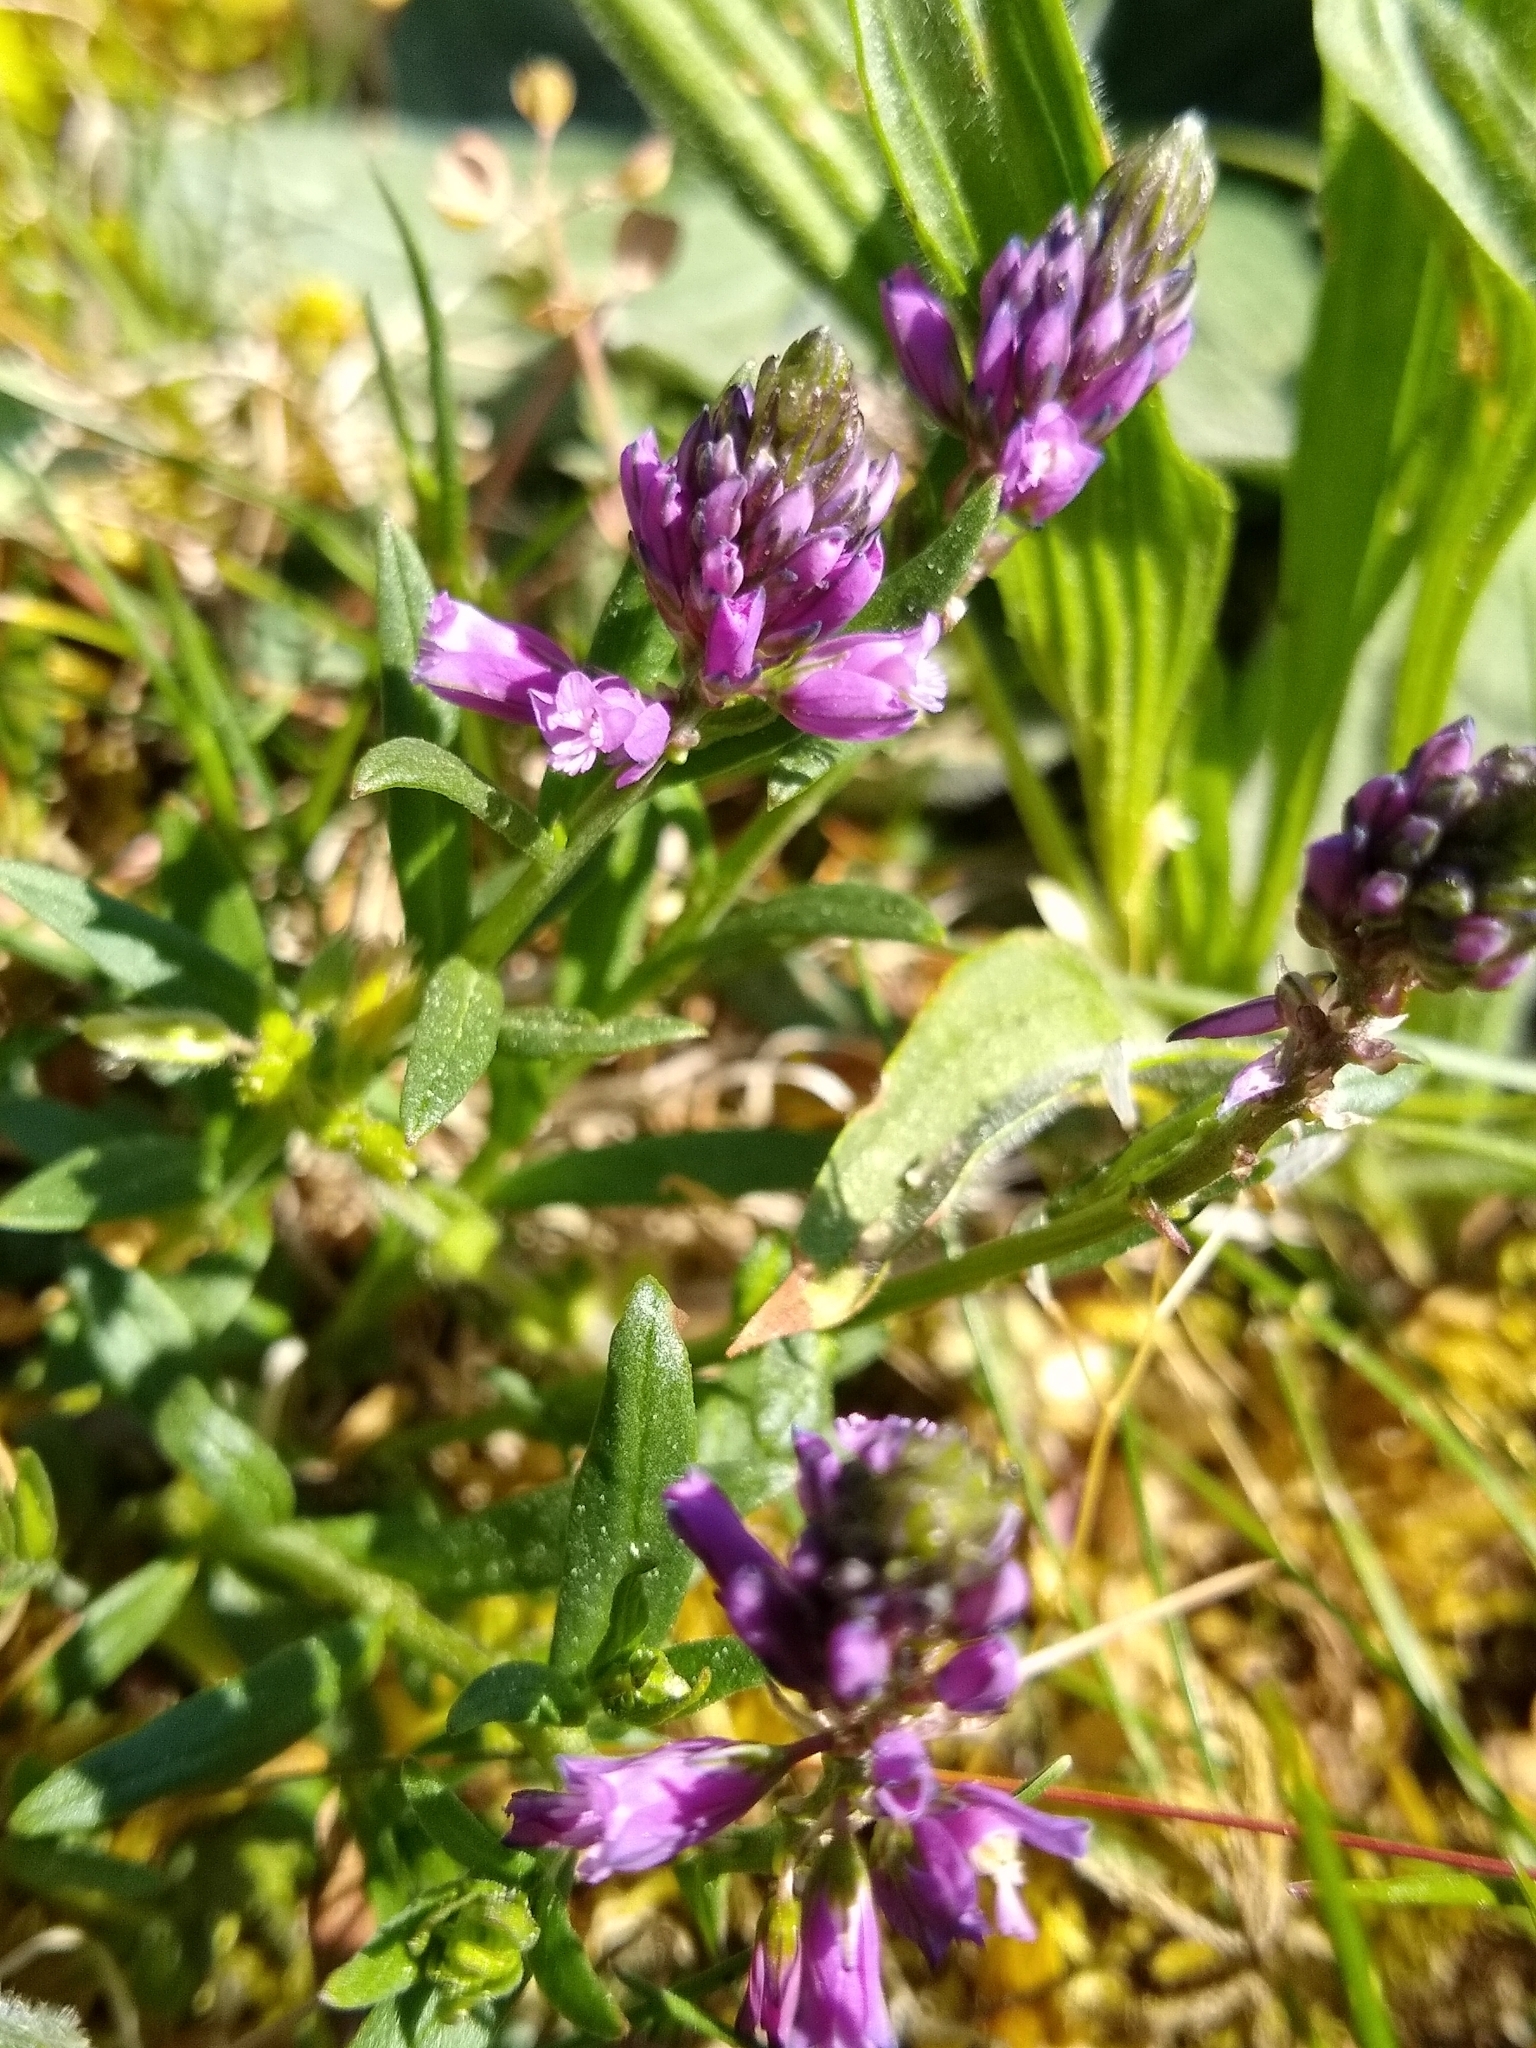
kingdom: Plantae
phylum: Tracheophyta
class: Magnoliopsida
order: Fabales
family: Polygalaceae
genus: Polygala
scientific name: Polygala comosa
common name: Tufted milkwort
